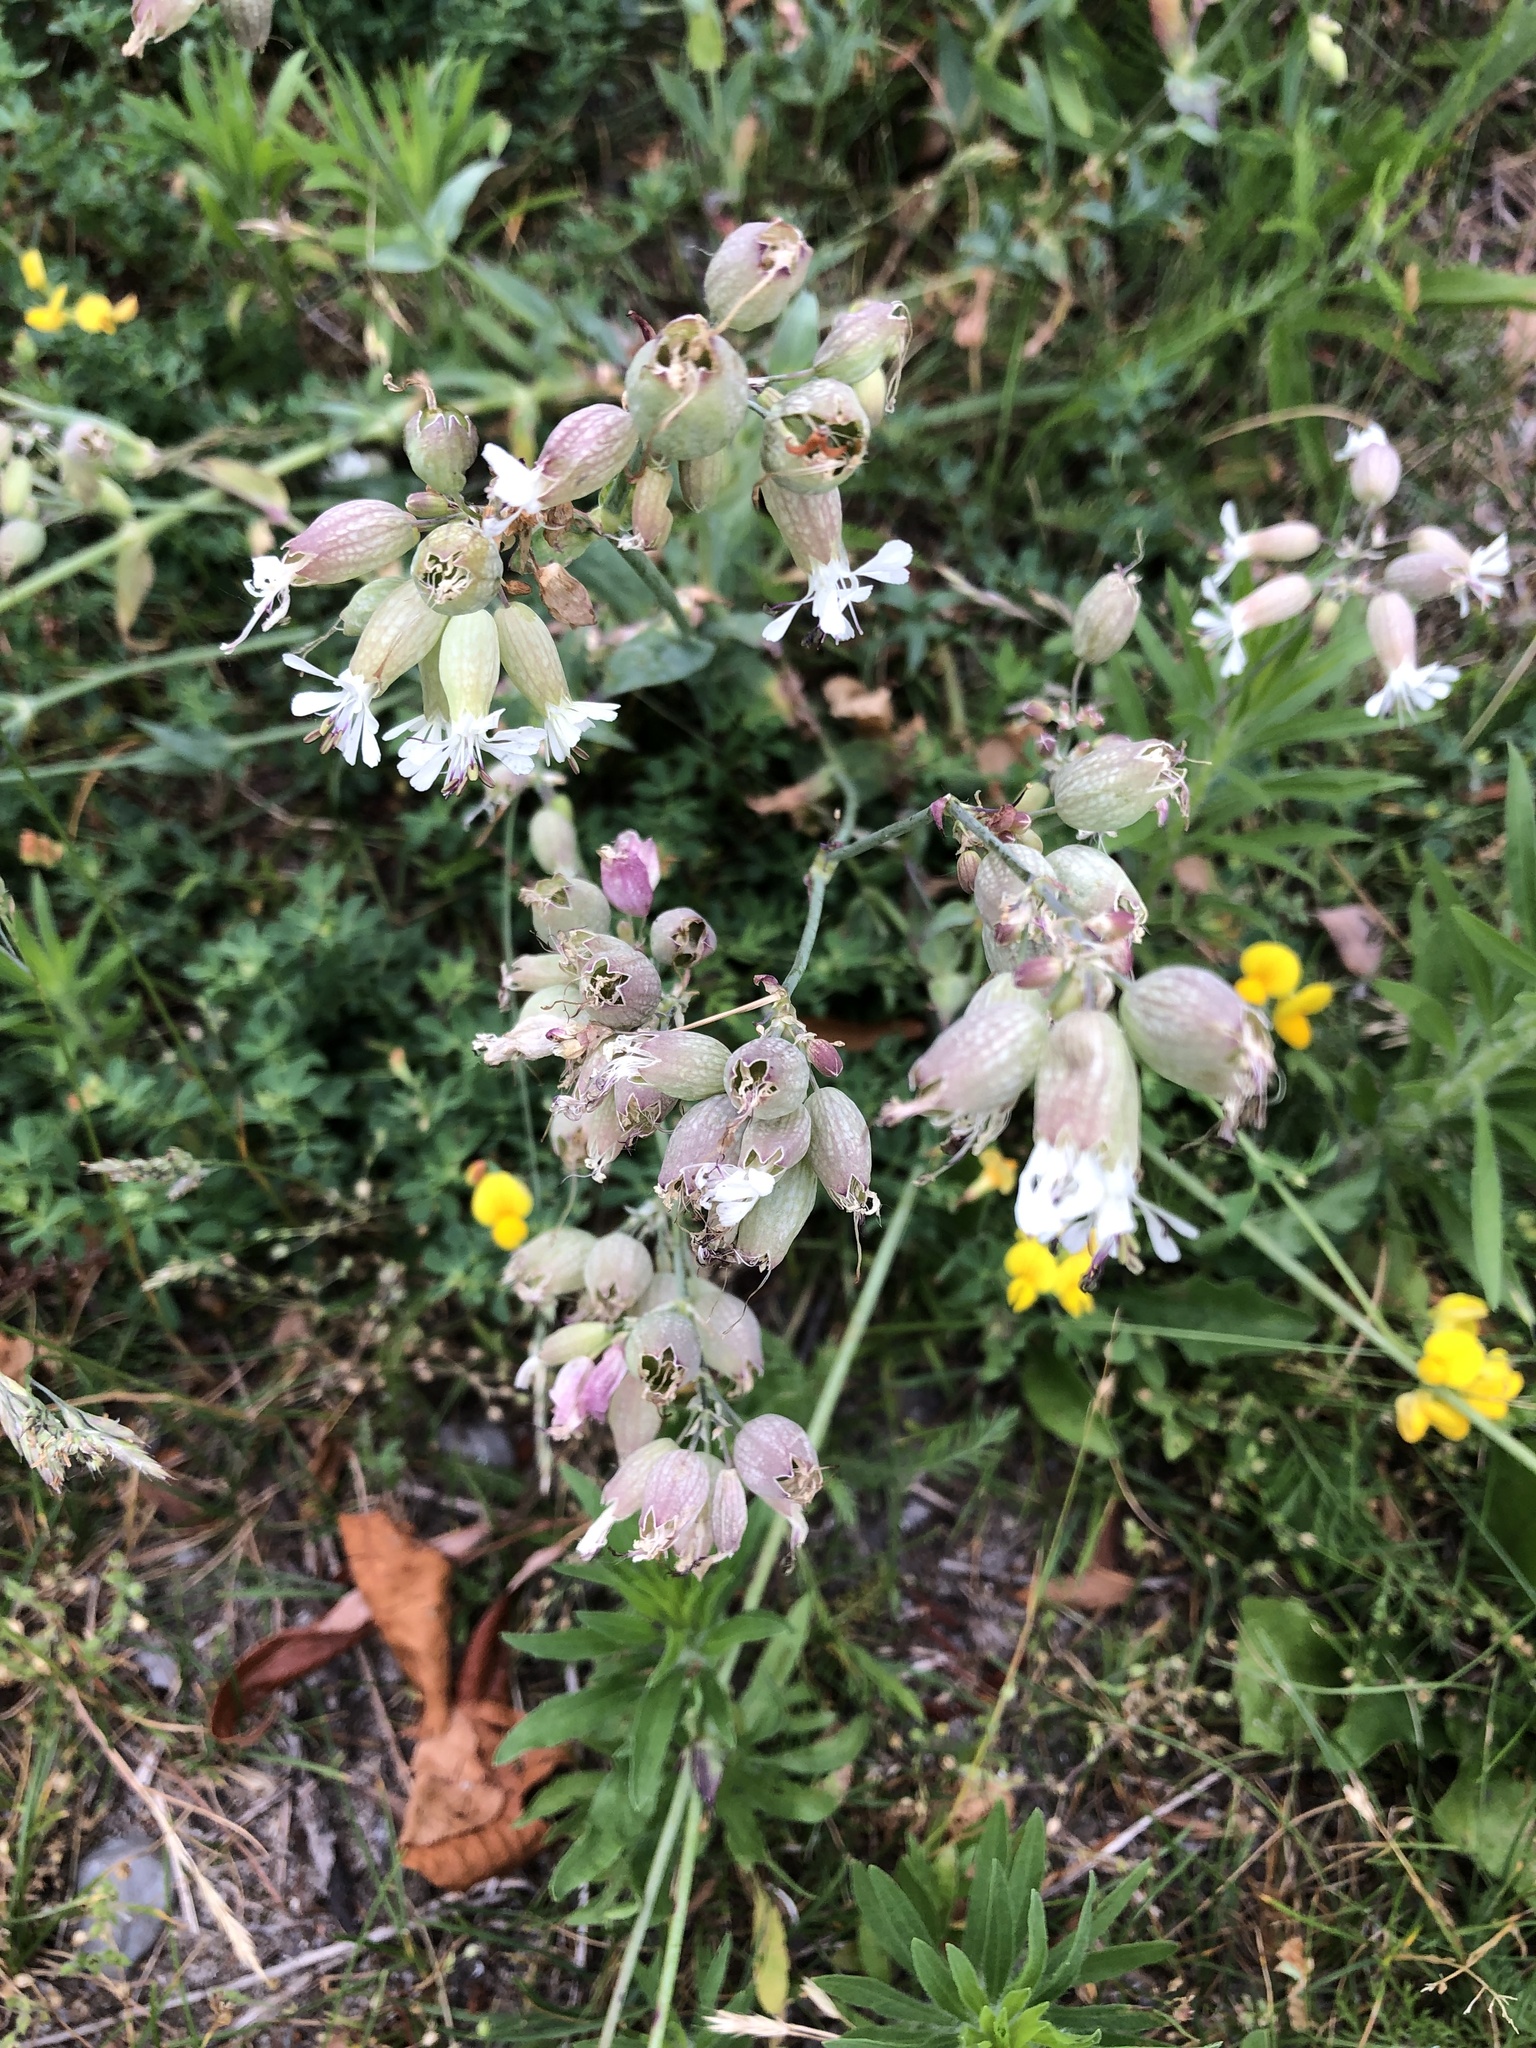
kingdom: Plantae
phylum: Tracheophyta
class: Magnoliopsida
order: Caryophyllales
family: Caryophyllaceae
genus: Silene
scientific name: Silene vulgaris
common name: Bladder campion
